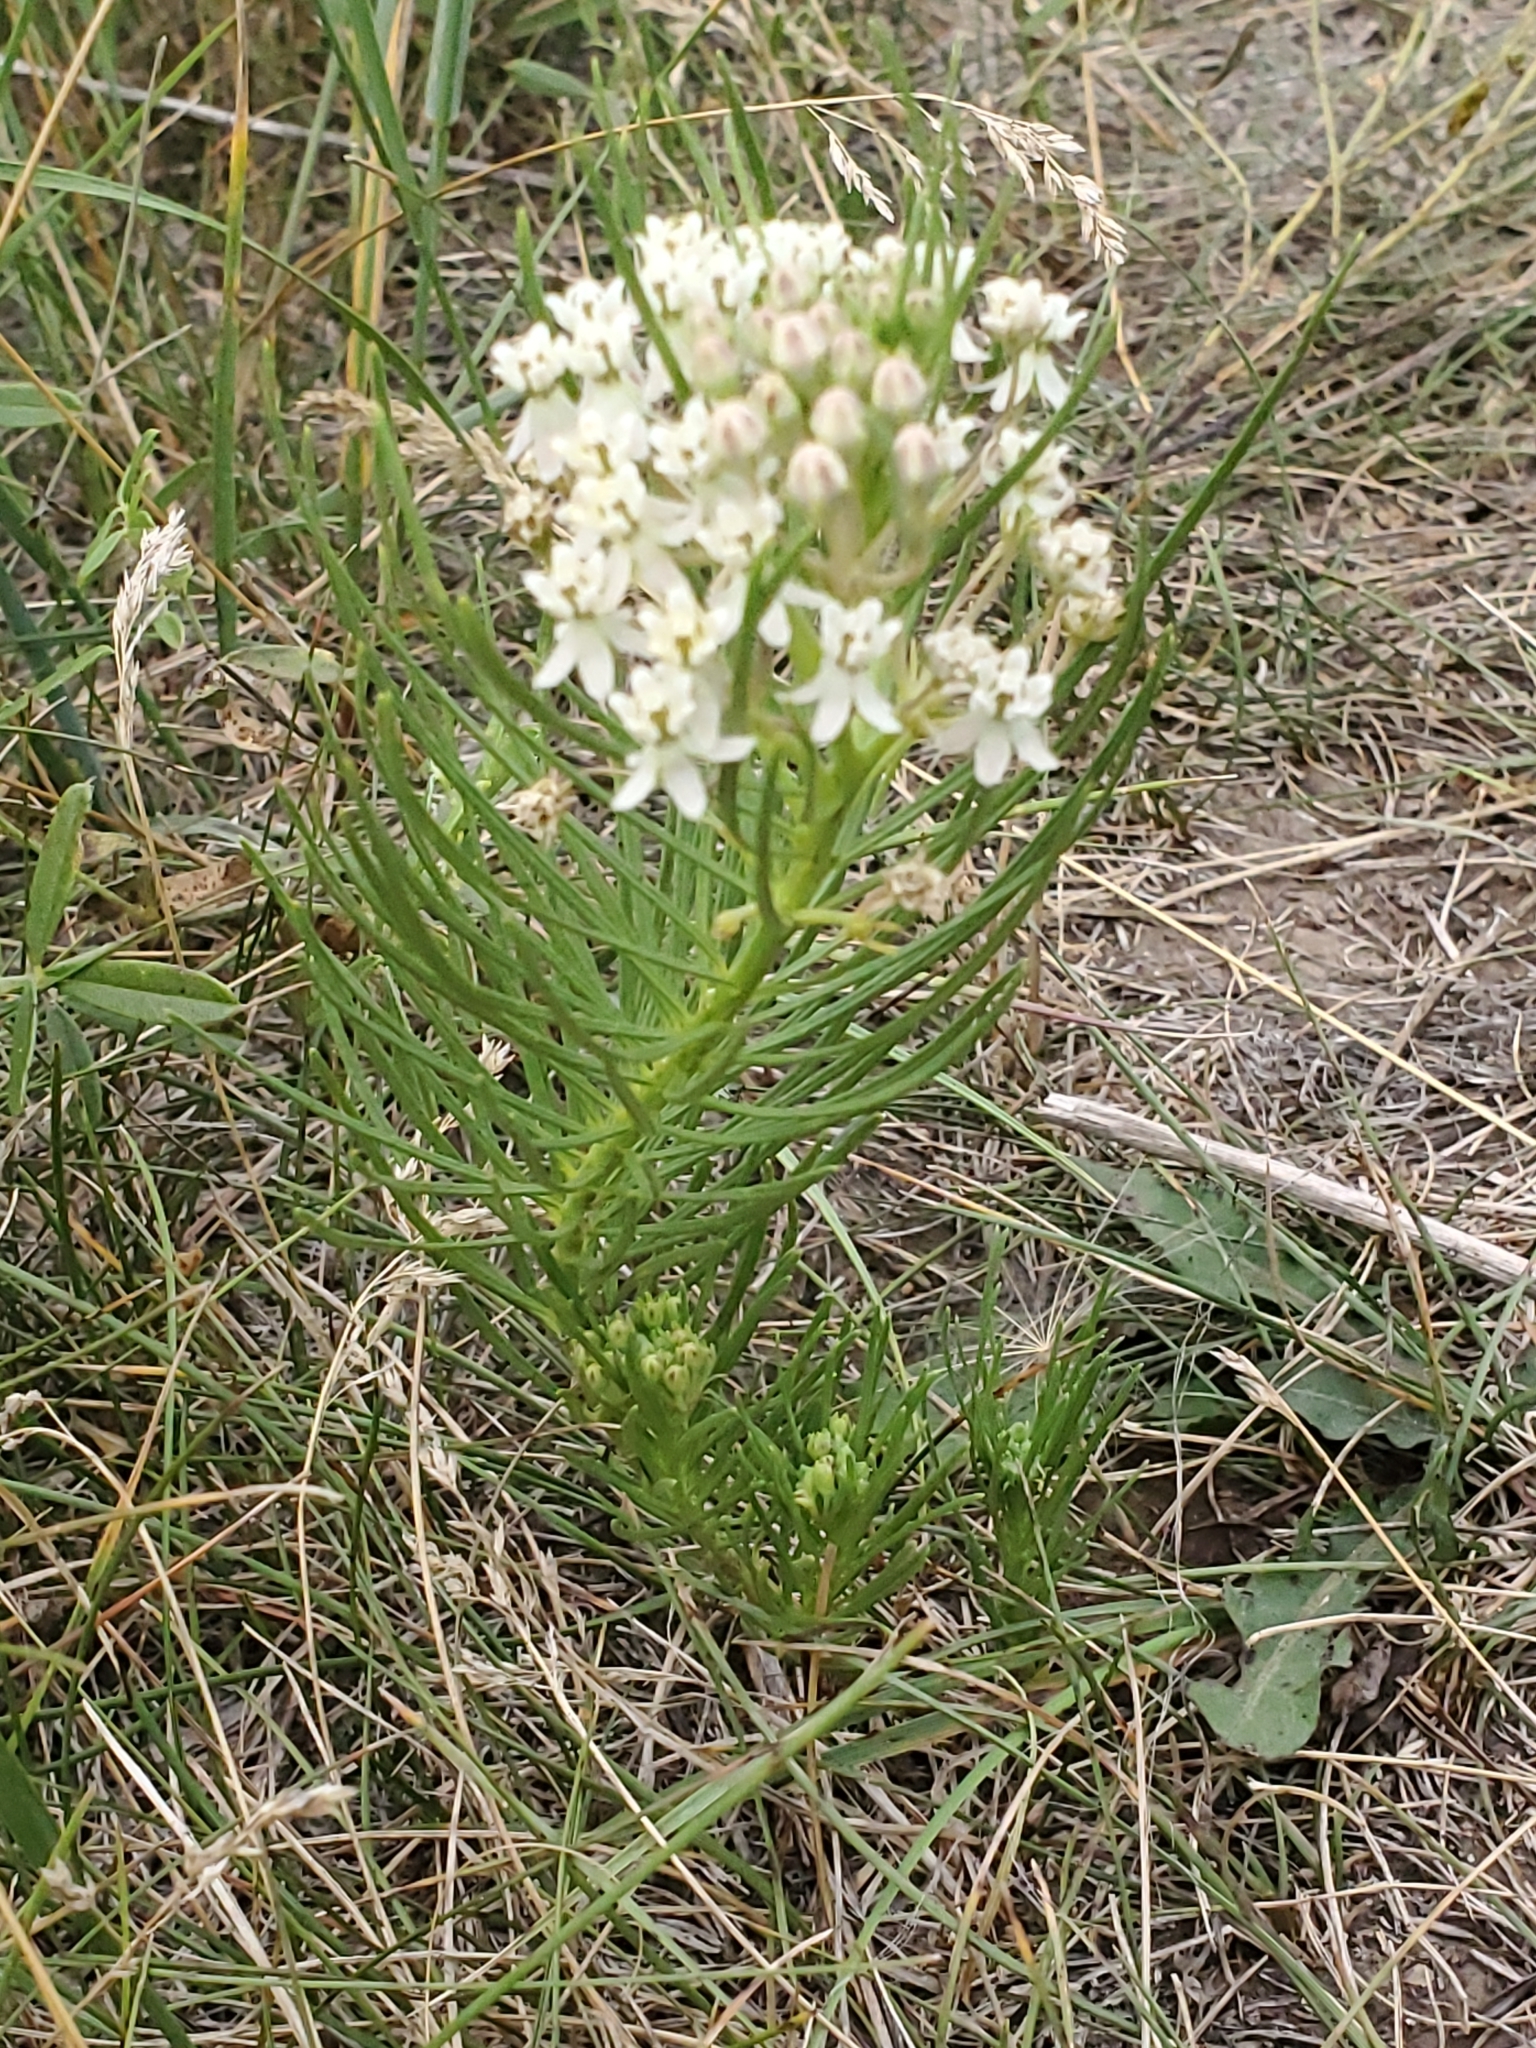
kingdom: Plantae
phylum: Tracheophyta
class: Magnoliopsida
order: Gentianales
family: Apocynaceae
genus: Asclepias
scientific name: Asclepias pumila
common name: Dwarf milkweed
